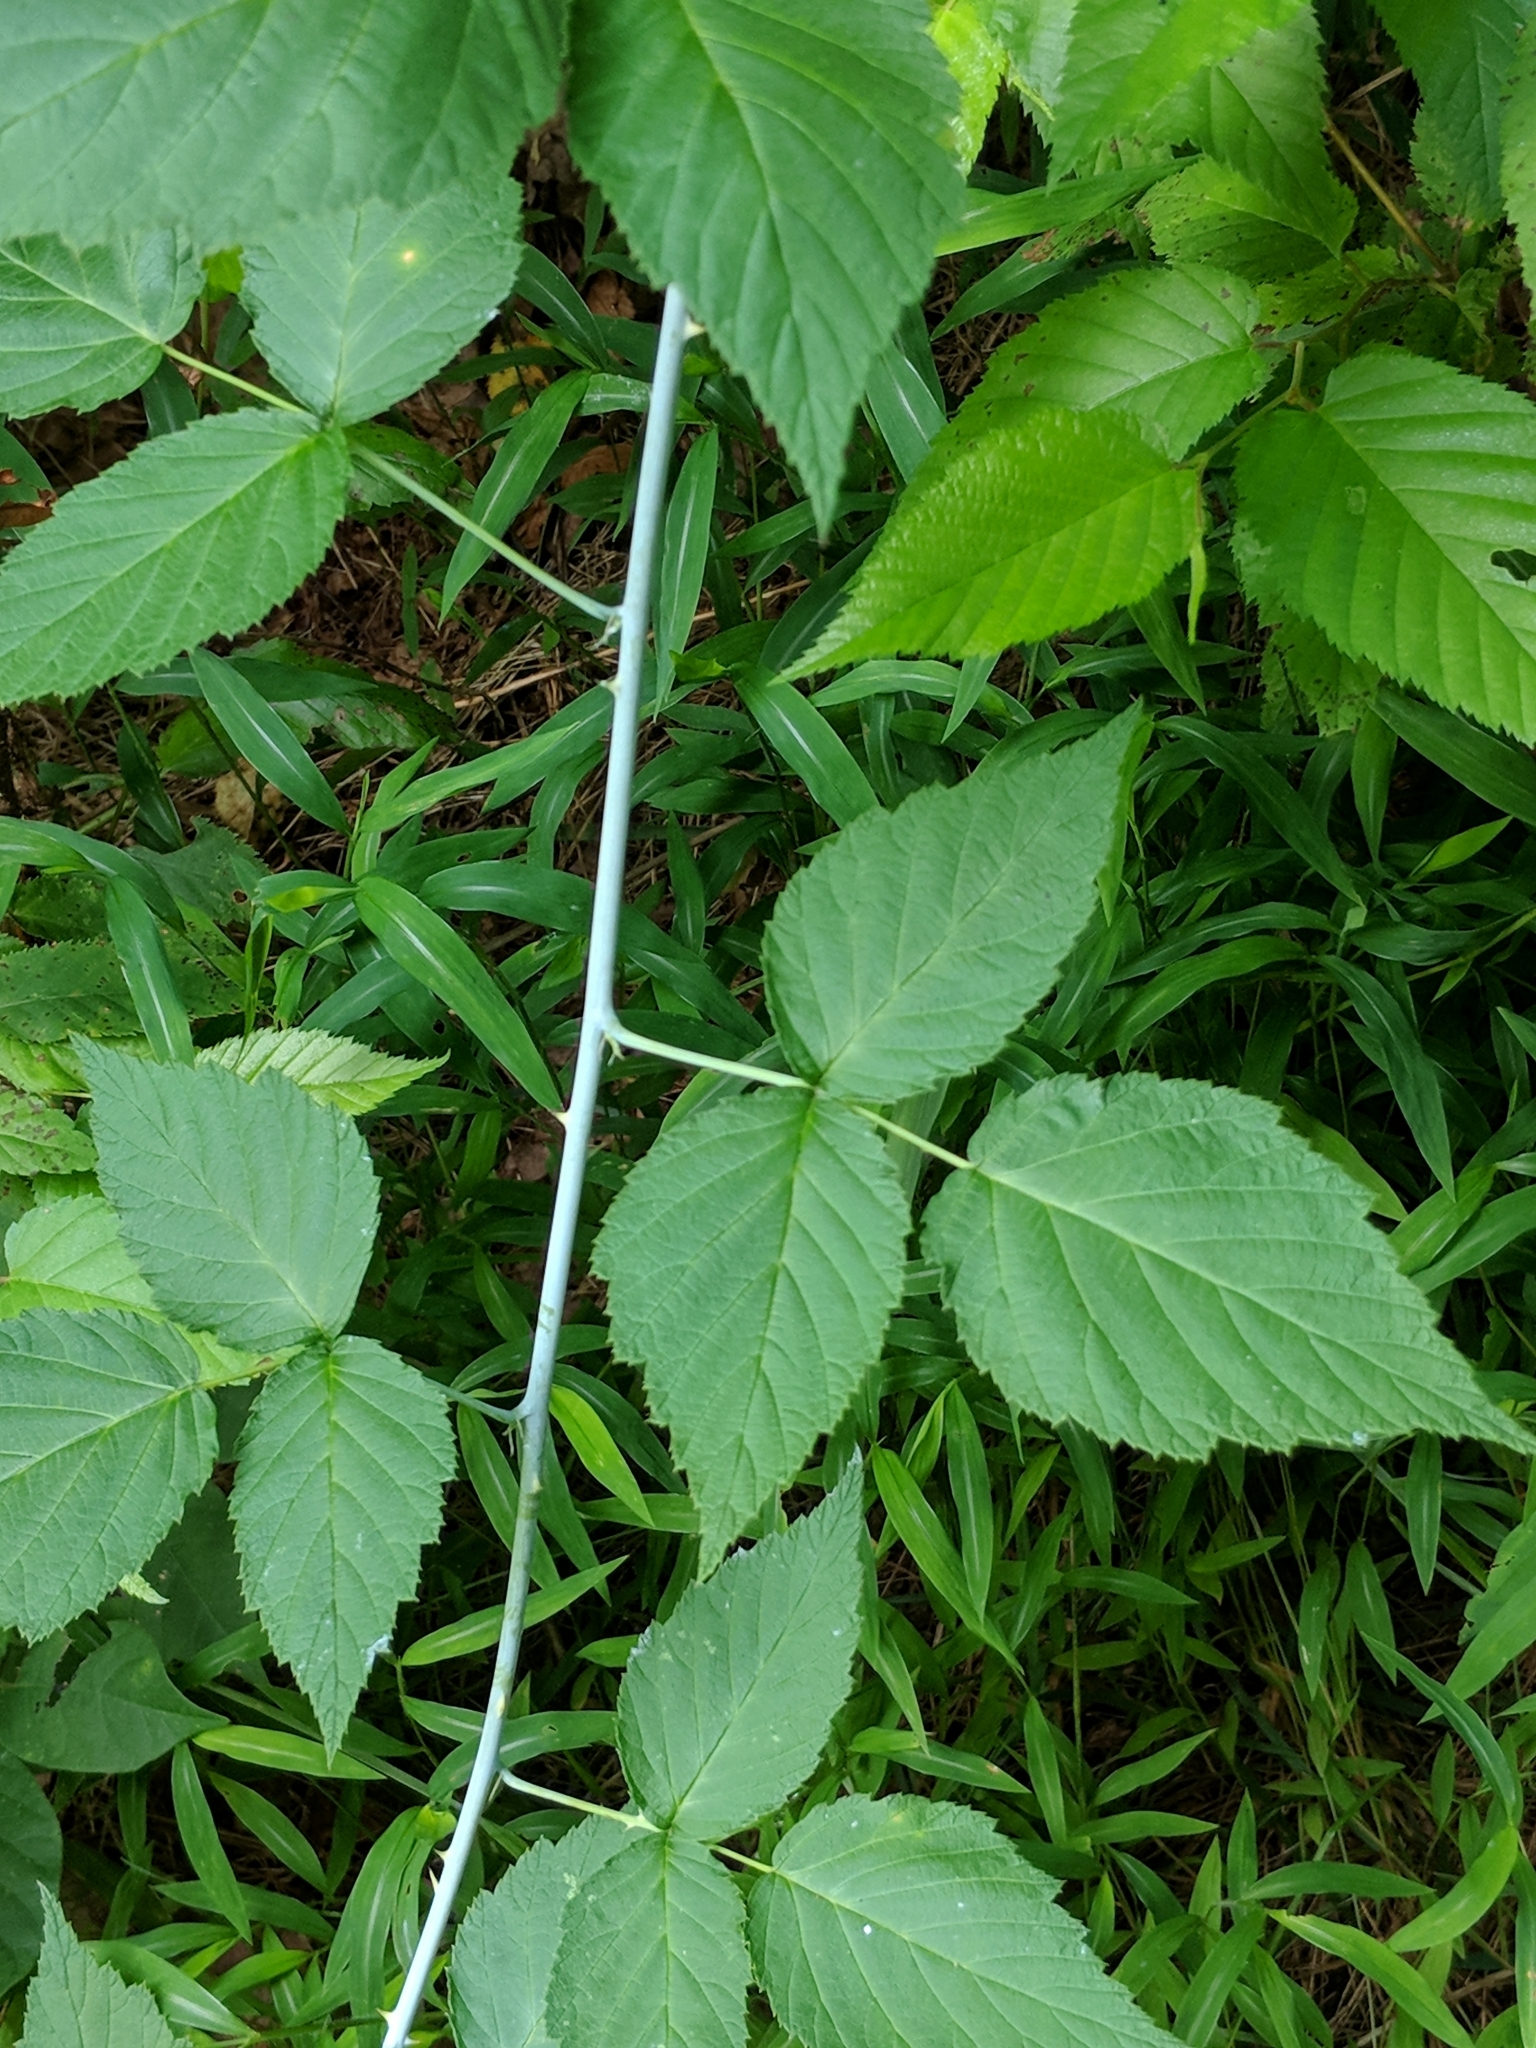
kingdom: Plantae
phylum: Tracheophyta
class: Magnoliopsida
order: Rosales
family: Rosaceae
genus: Rubus
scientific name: Rubus occidentalis
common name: Black raspberry
